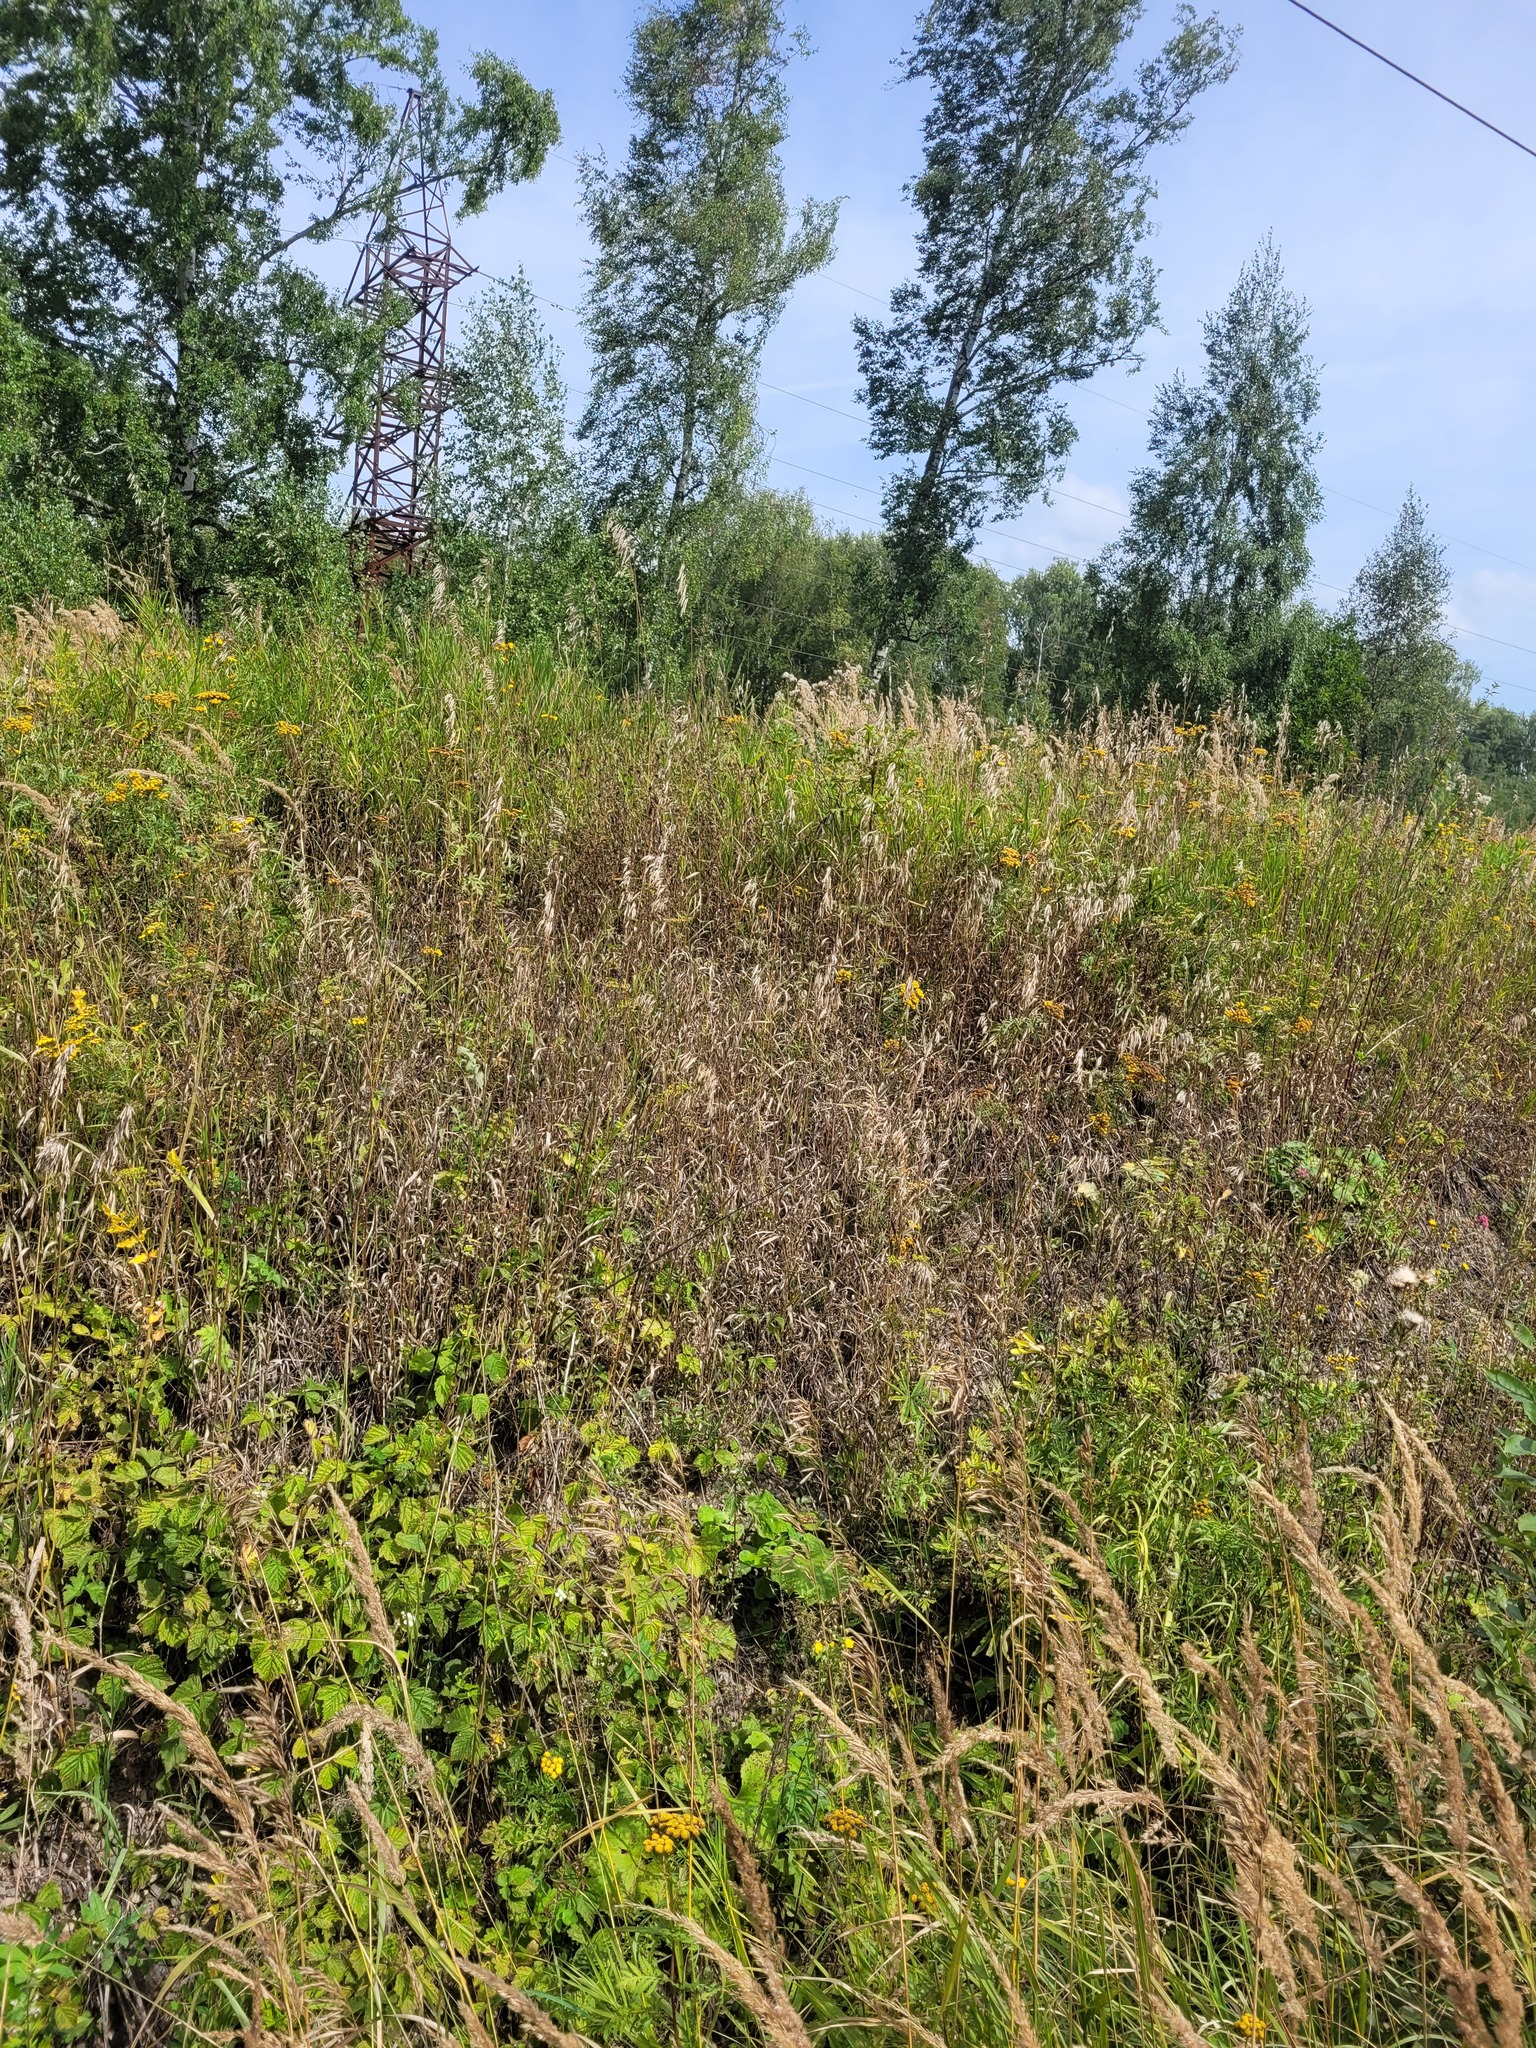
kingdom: Plantae
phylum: Tracheophyta
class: Liliopsida
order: Poales
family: Poaceae
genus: Bromus
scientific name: Bromus inermis
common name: Smooth brome
